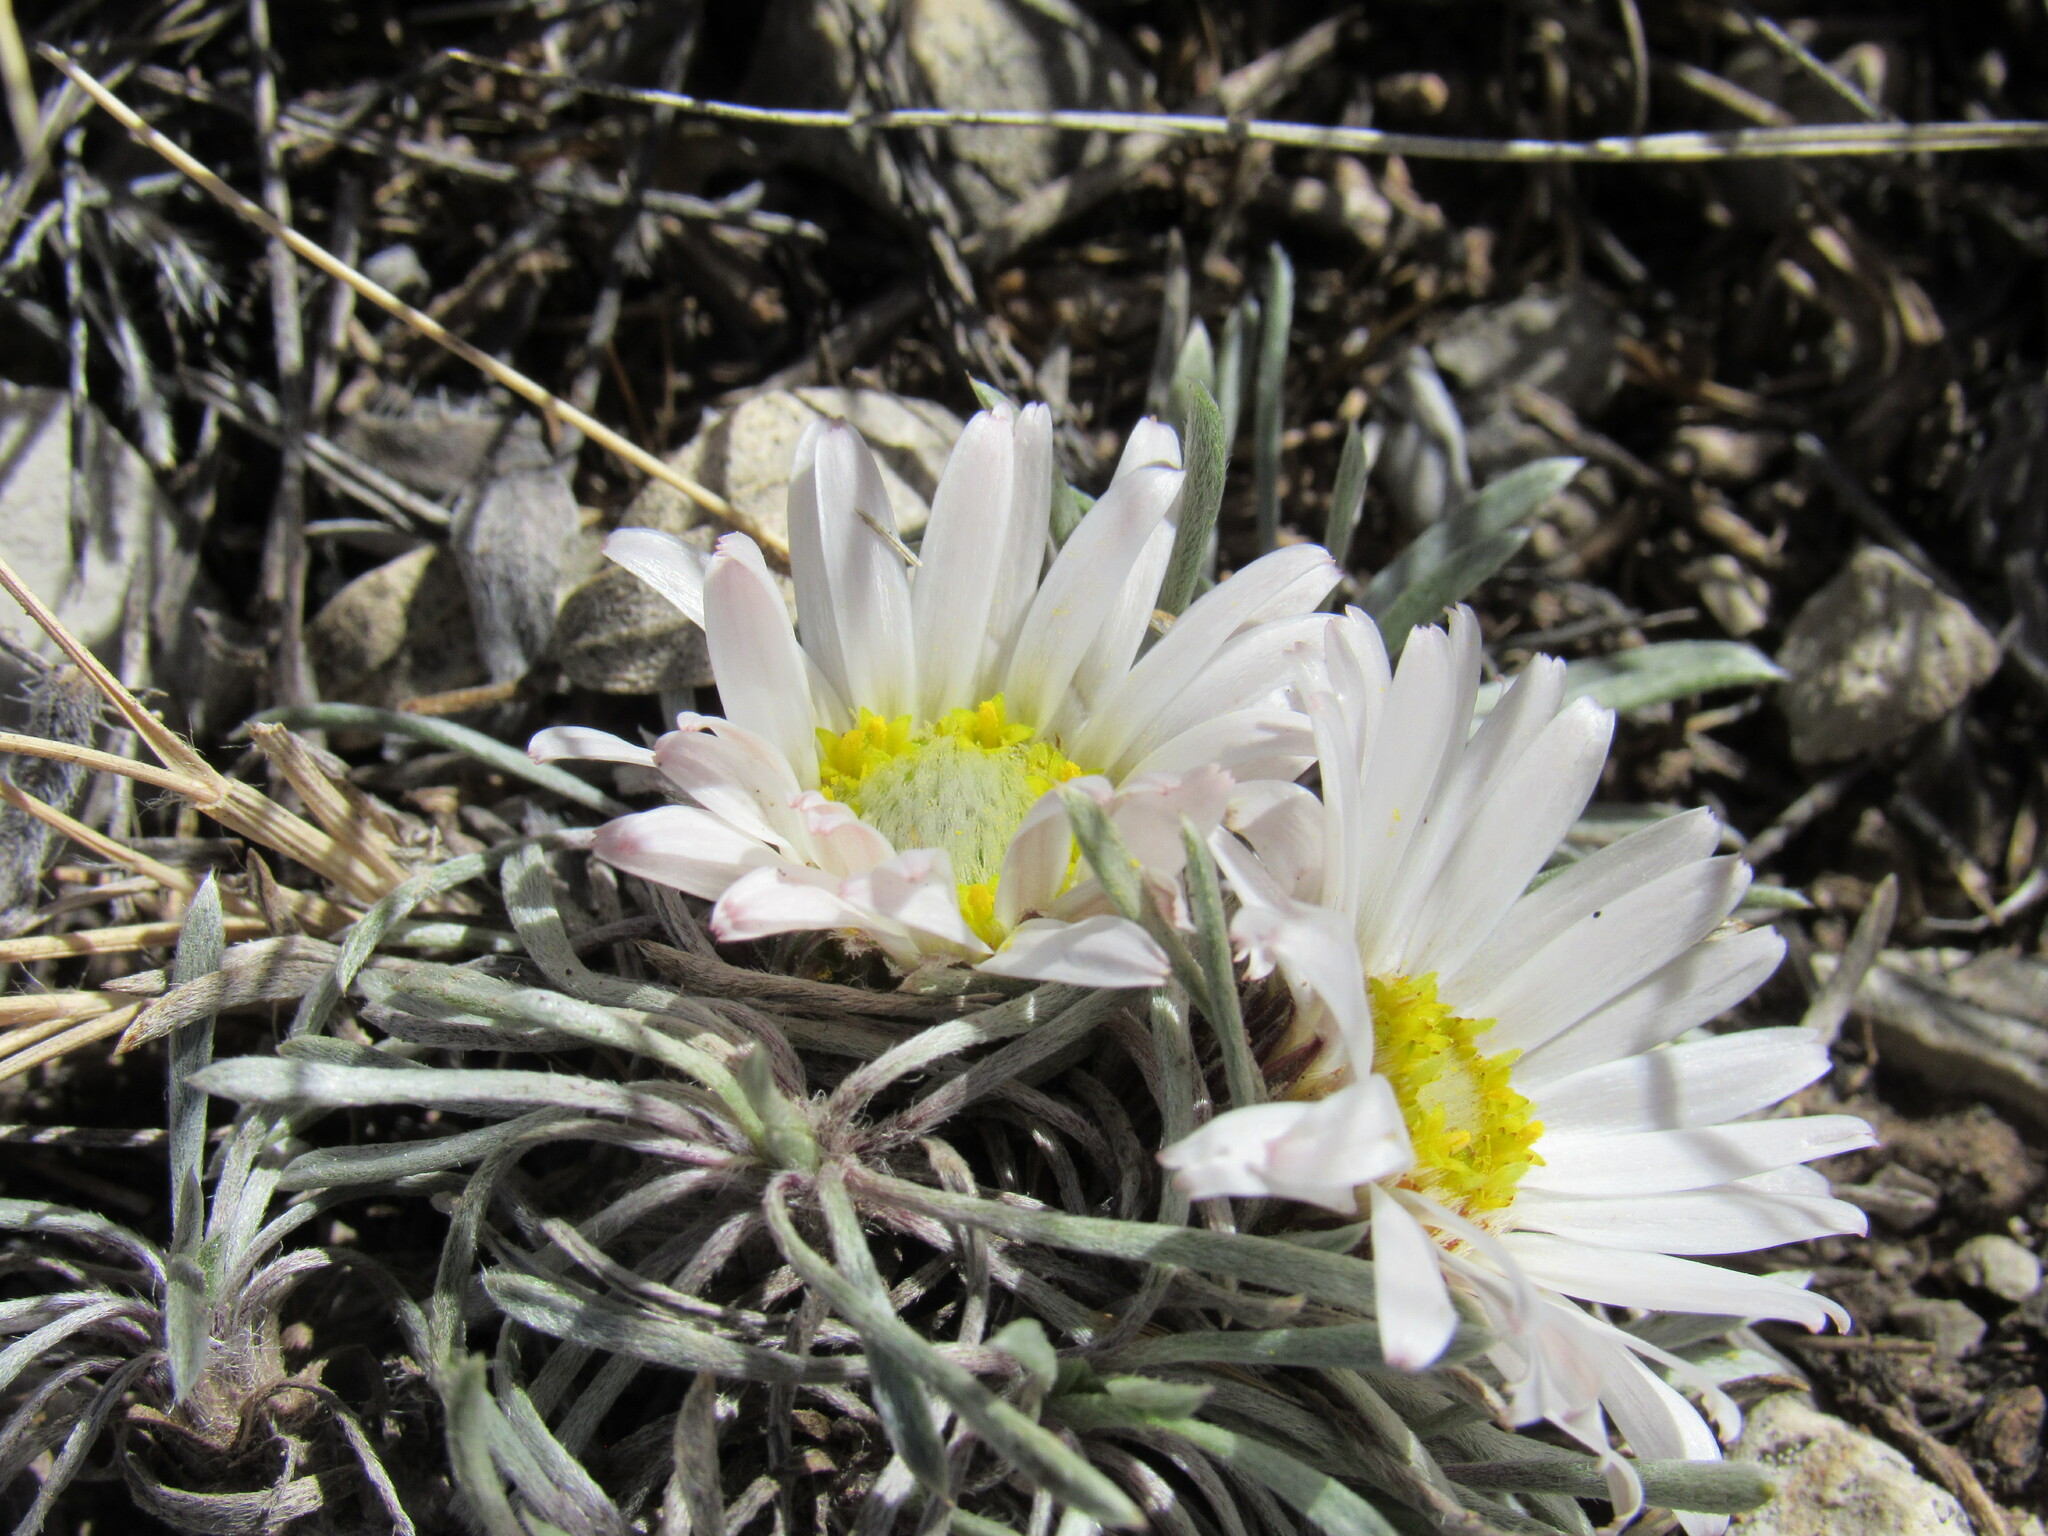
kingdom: Plantae
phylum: Tracheophyta
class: Magnoliopsida
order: Asterales
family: Asteraceae
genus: Townsendia
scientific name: Townsendia hookeri
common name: Hooker's townsend daisy
